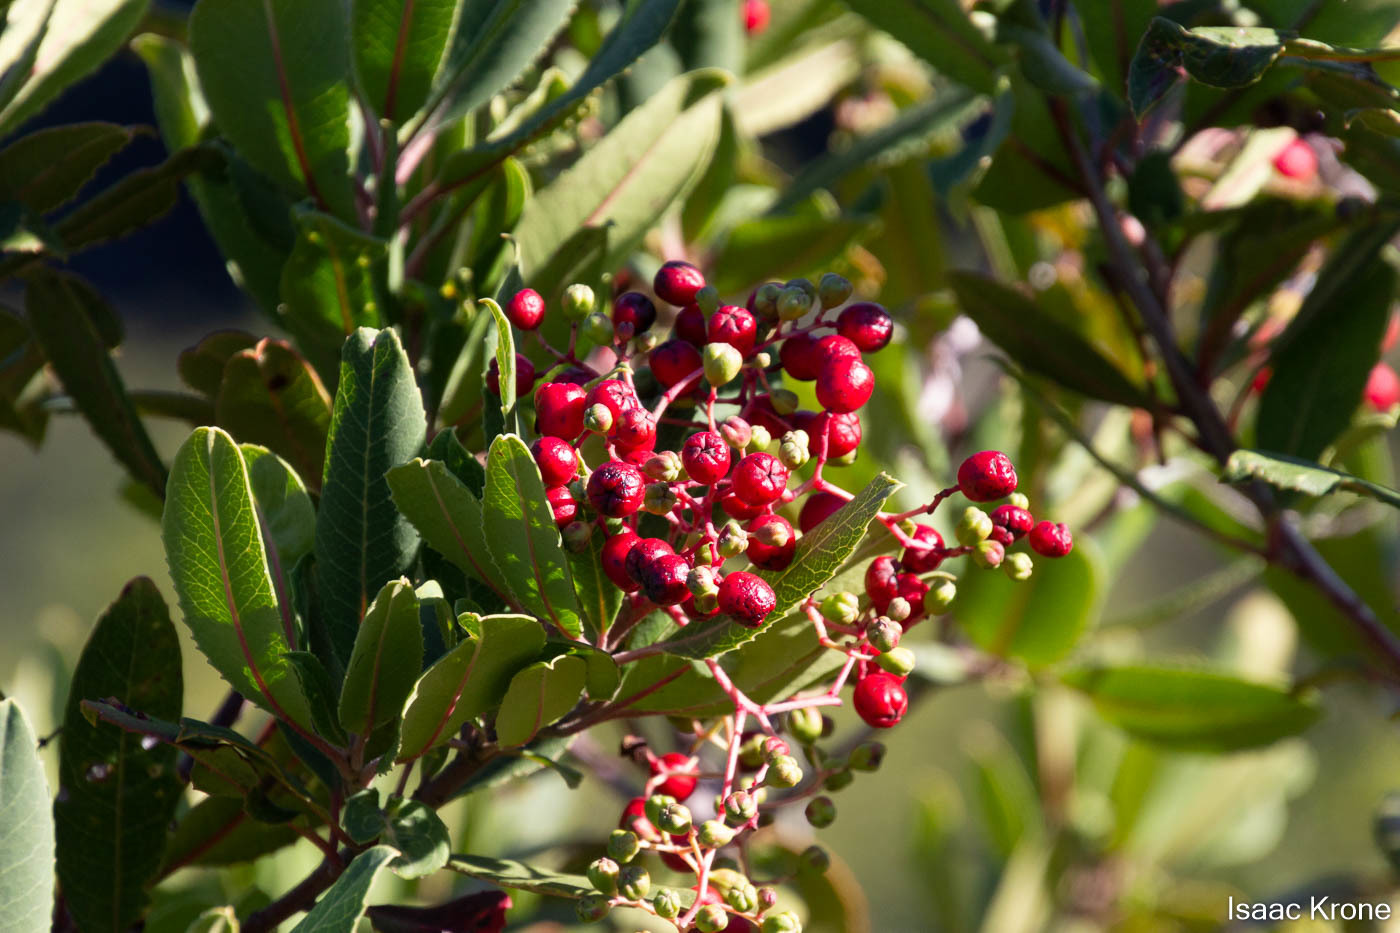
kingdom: Plantae
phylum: Tracheophyta
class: Magnoliopsida
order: Rosales
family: Rosaceae
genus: Heteromeles
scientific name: Heteromeles arbutifolia
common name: California-holly
